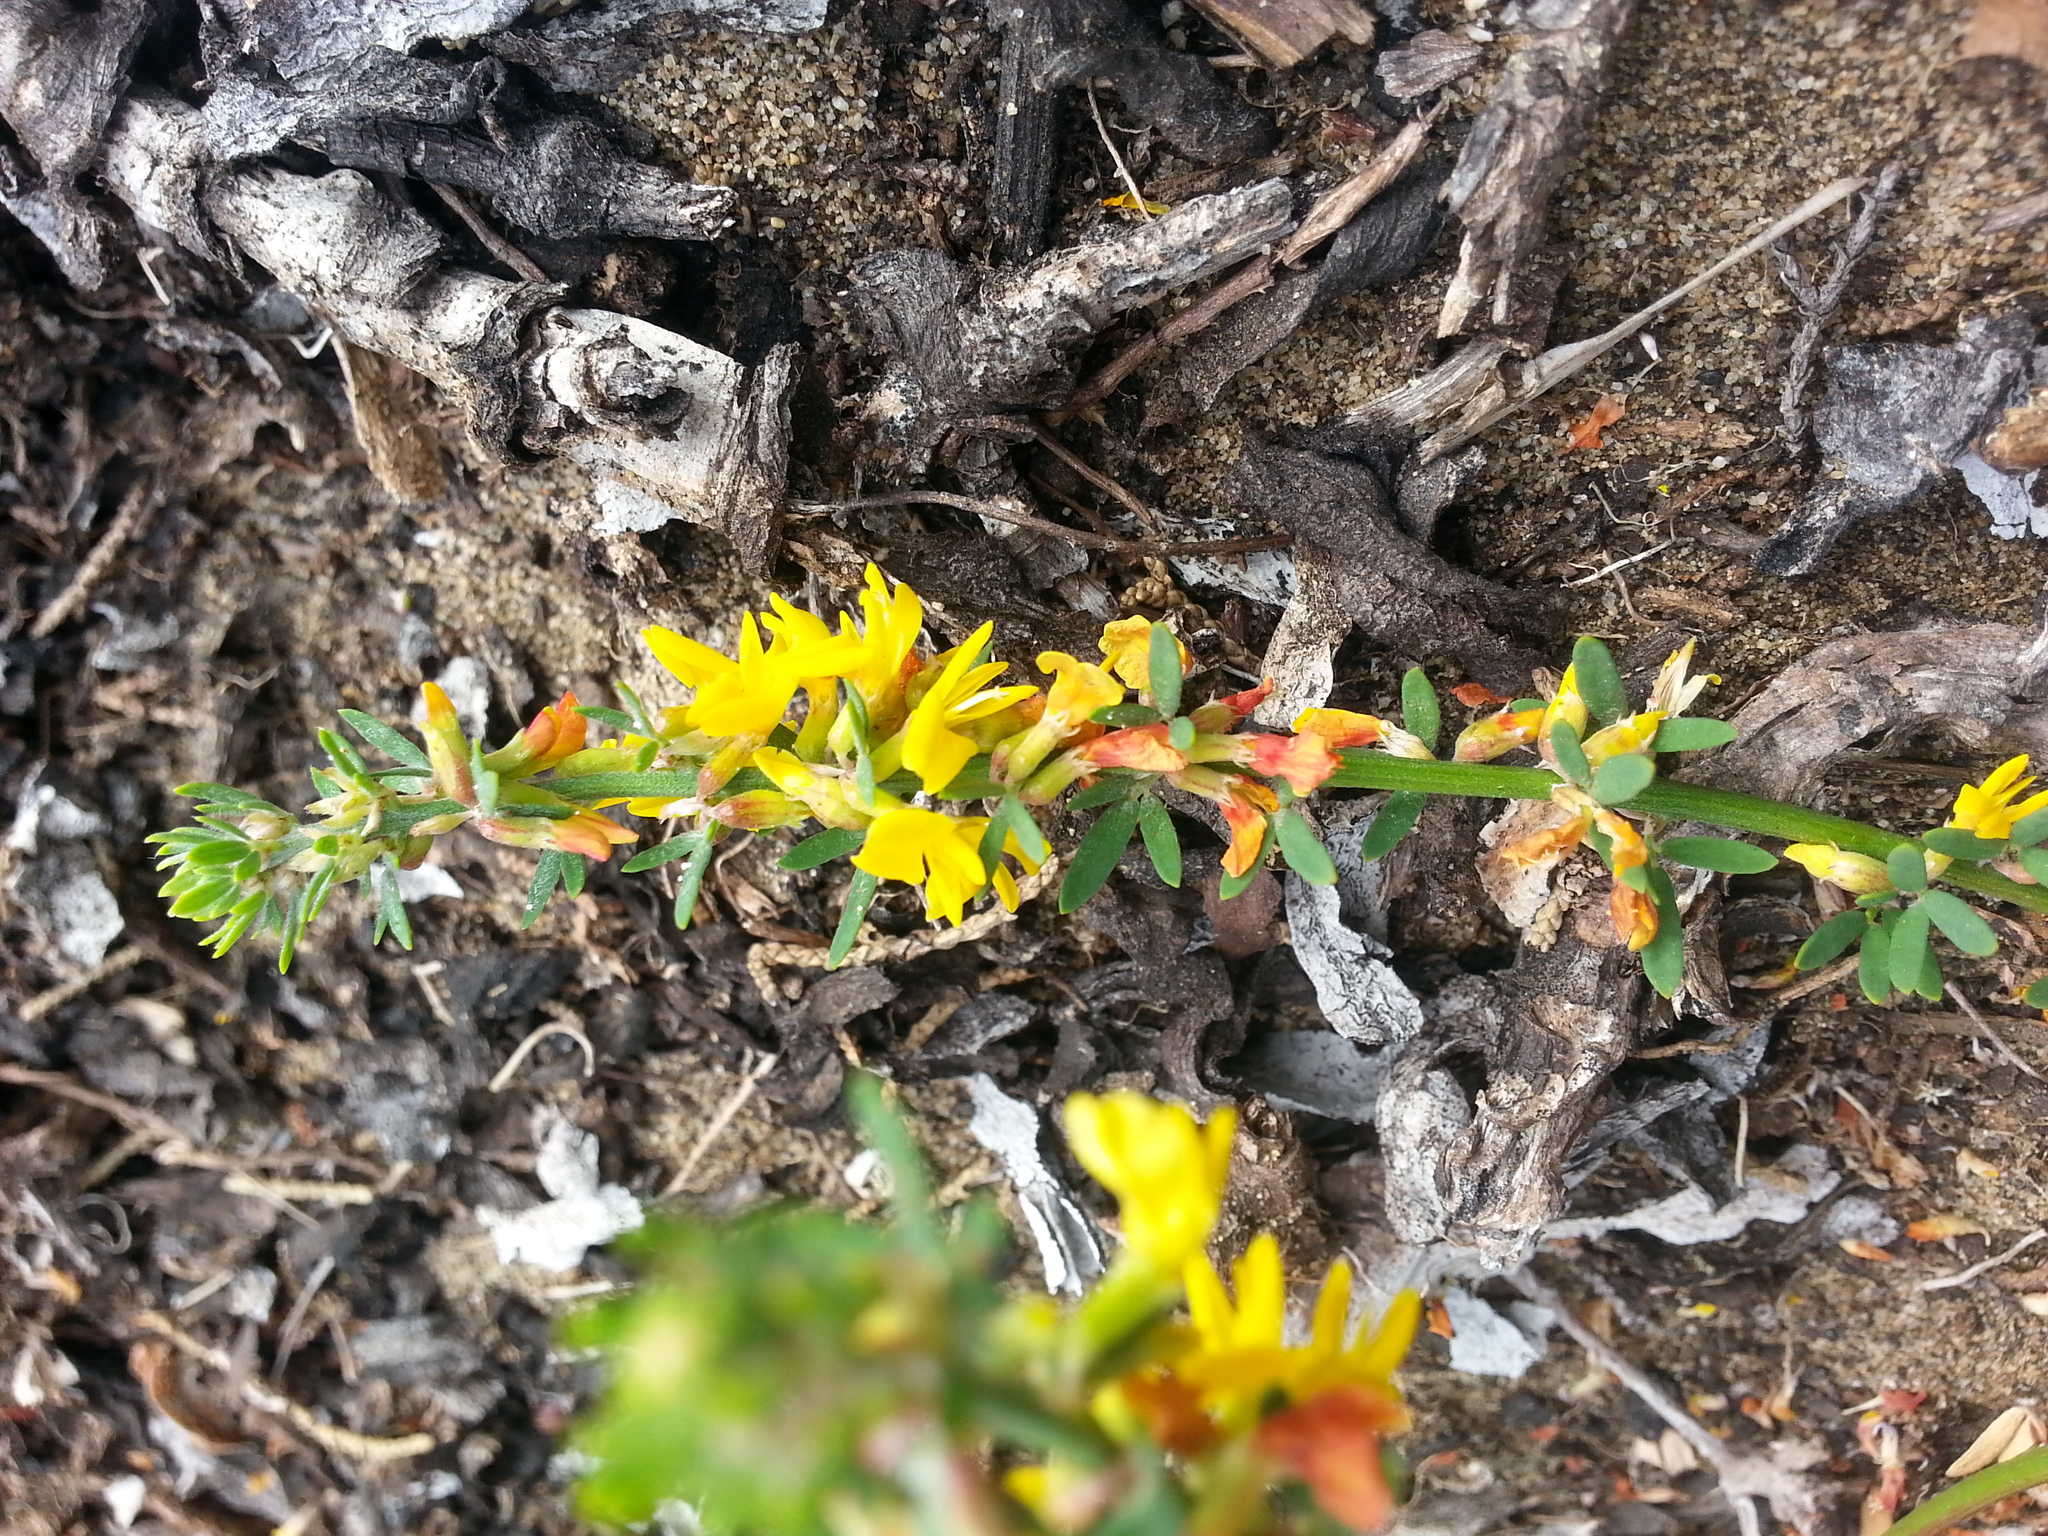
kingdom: Plantae
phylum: Tracheophyta
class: Magnoliopsida
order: Fabales
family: Fabaceae
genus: Acmispon
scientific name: Acmispon glaber
